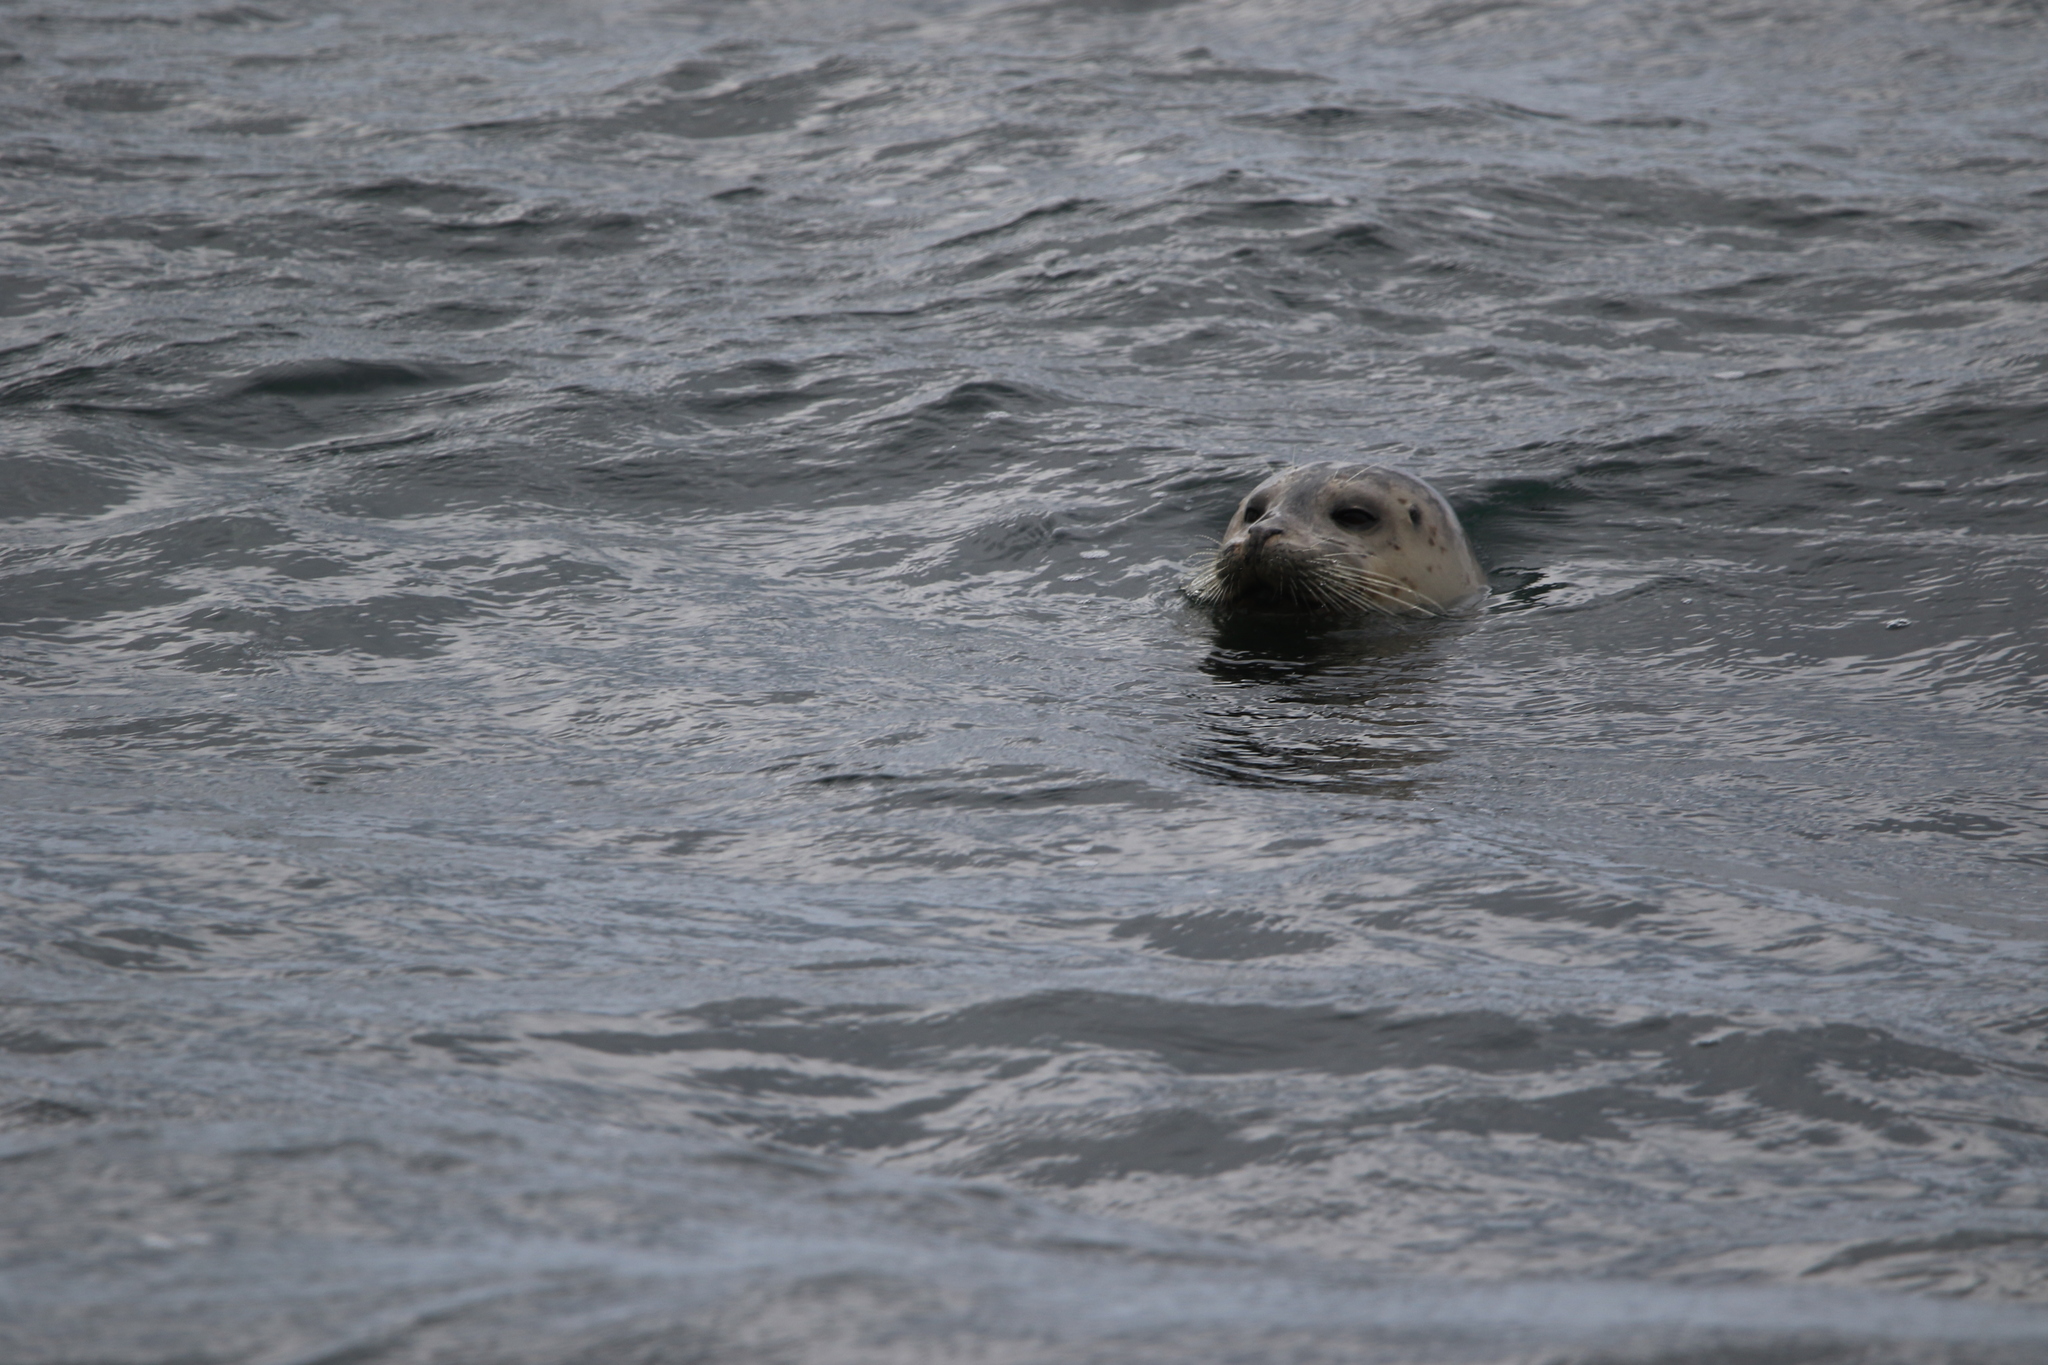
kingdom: Animalia
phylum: Chordata
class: Mammalia
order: Carnivora
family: Phocidae
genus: Phoca
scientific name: Phoca vitulina
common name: Harbor seal
